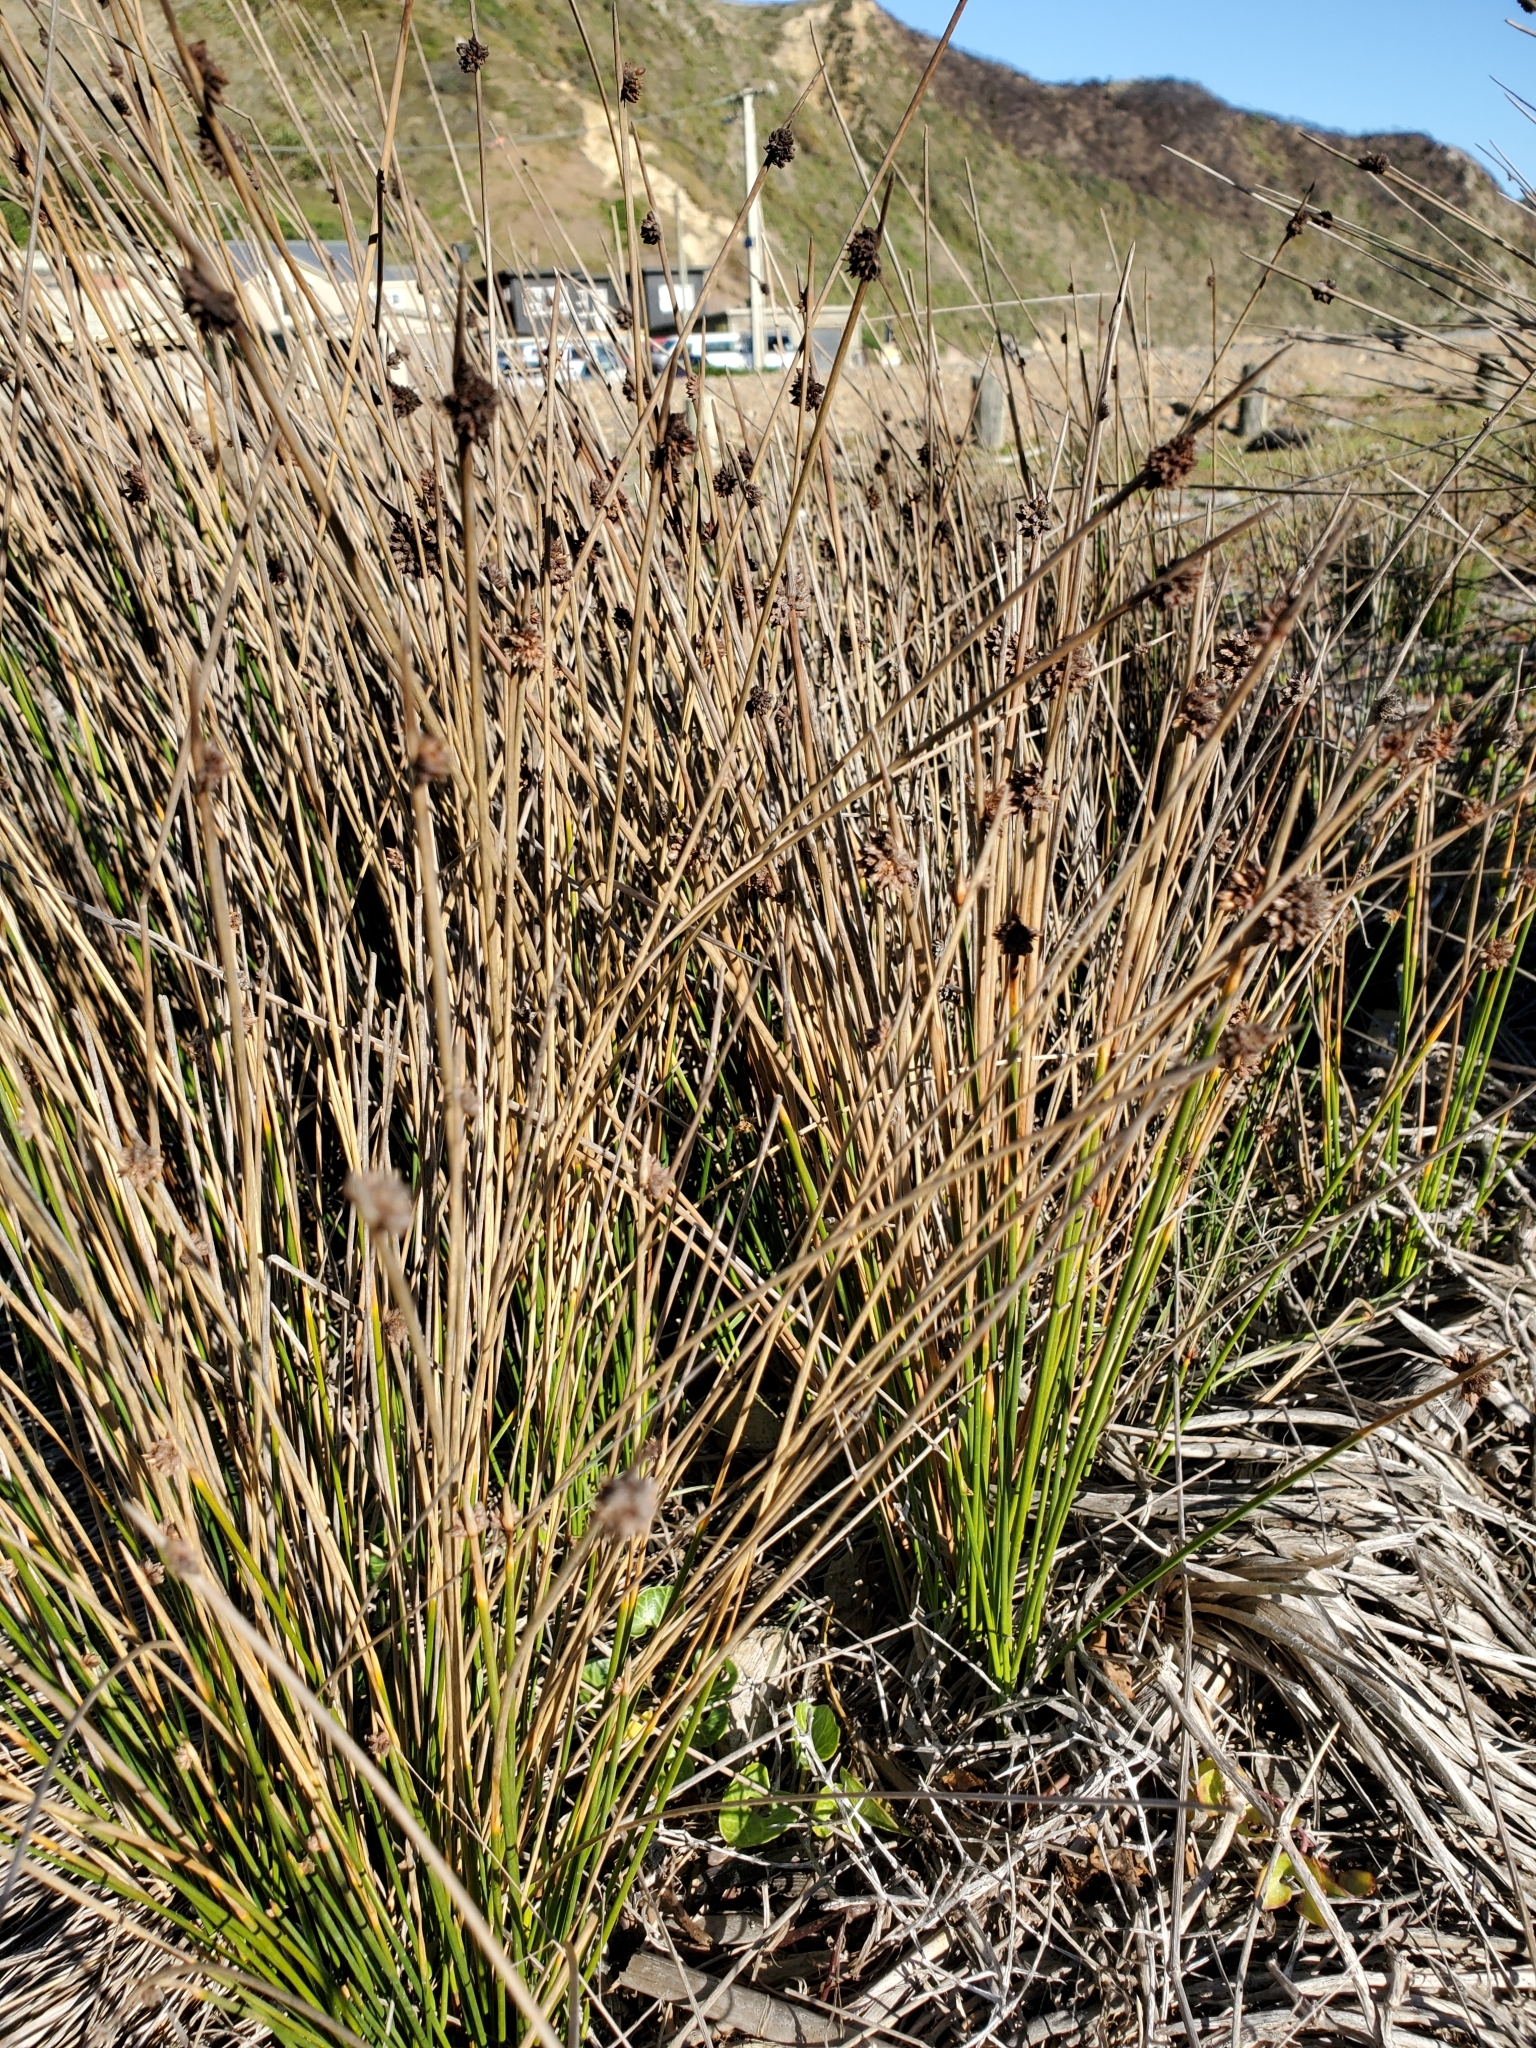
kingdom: Plantae
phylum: Tracheophyta
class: Liliopsida
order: Poales
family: Cyperaceae
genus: Ficinia
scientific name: Ficinia nodosa
